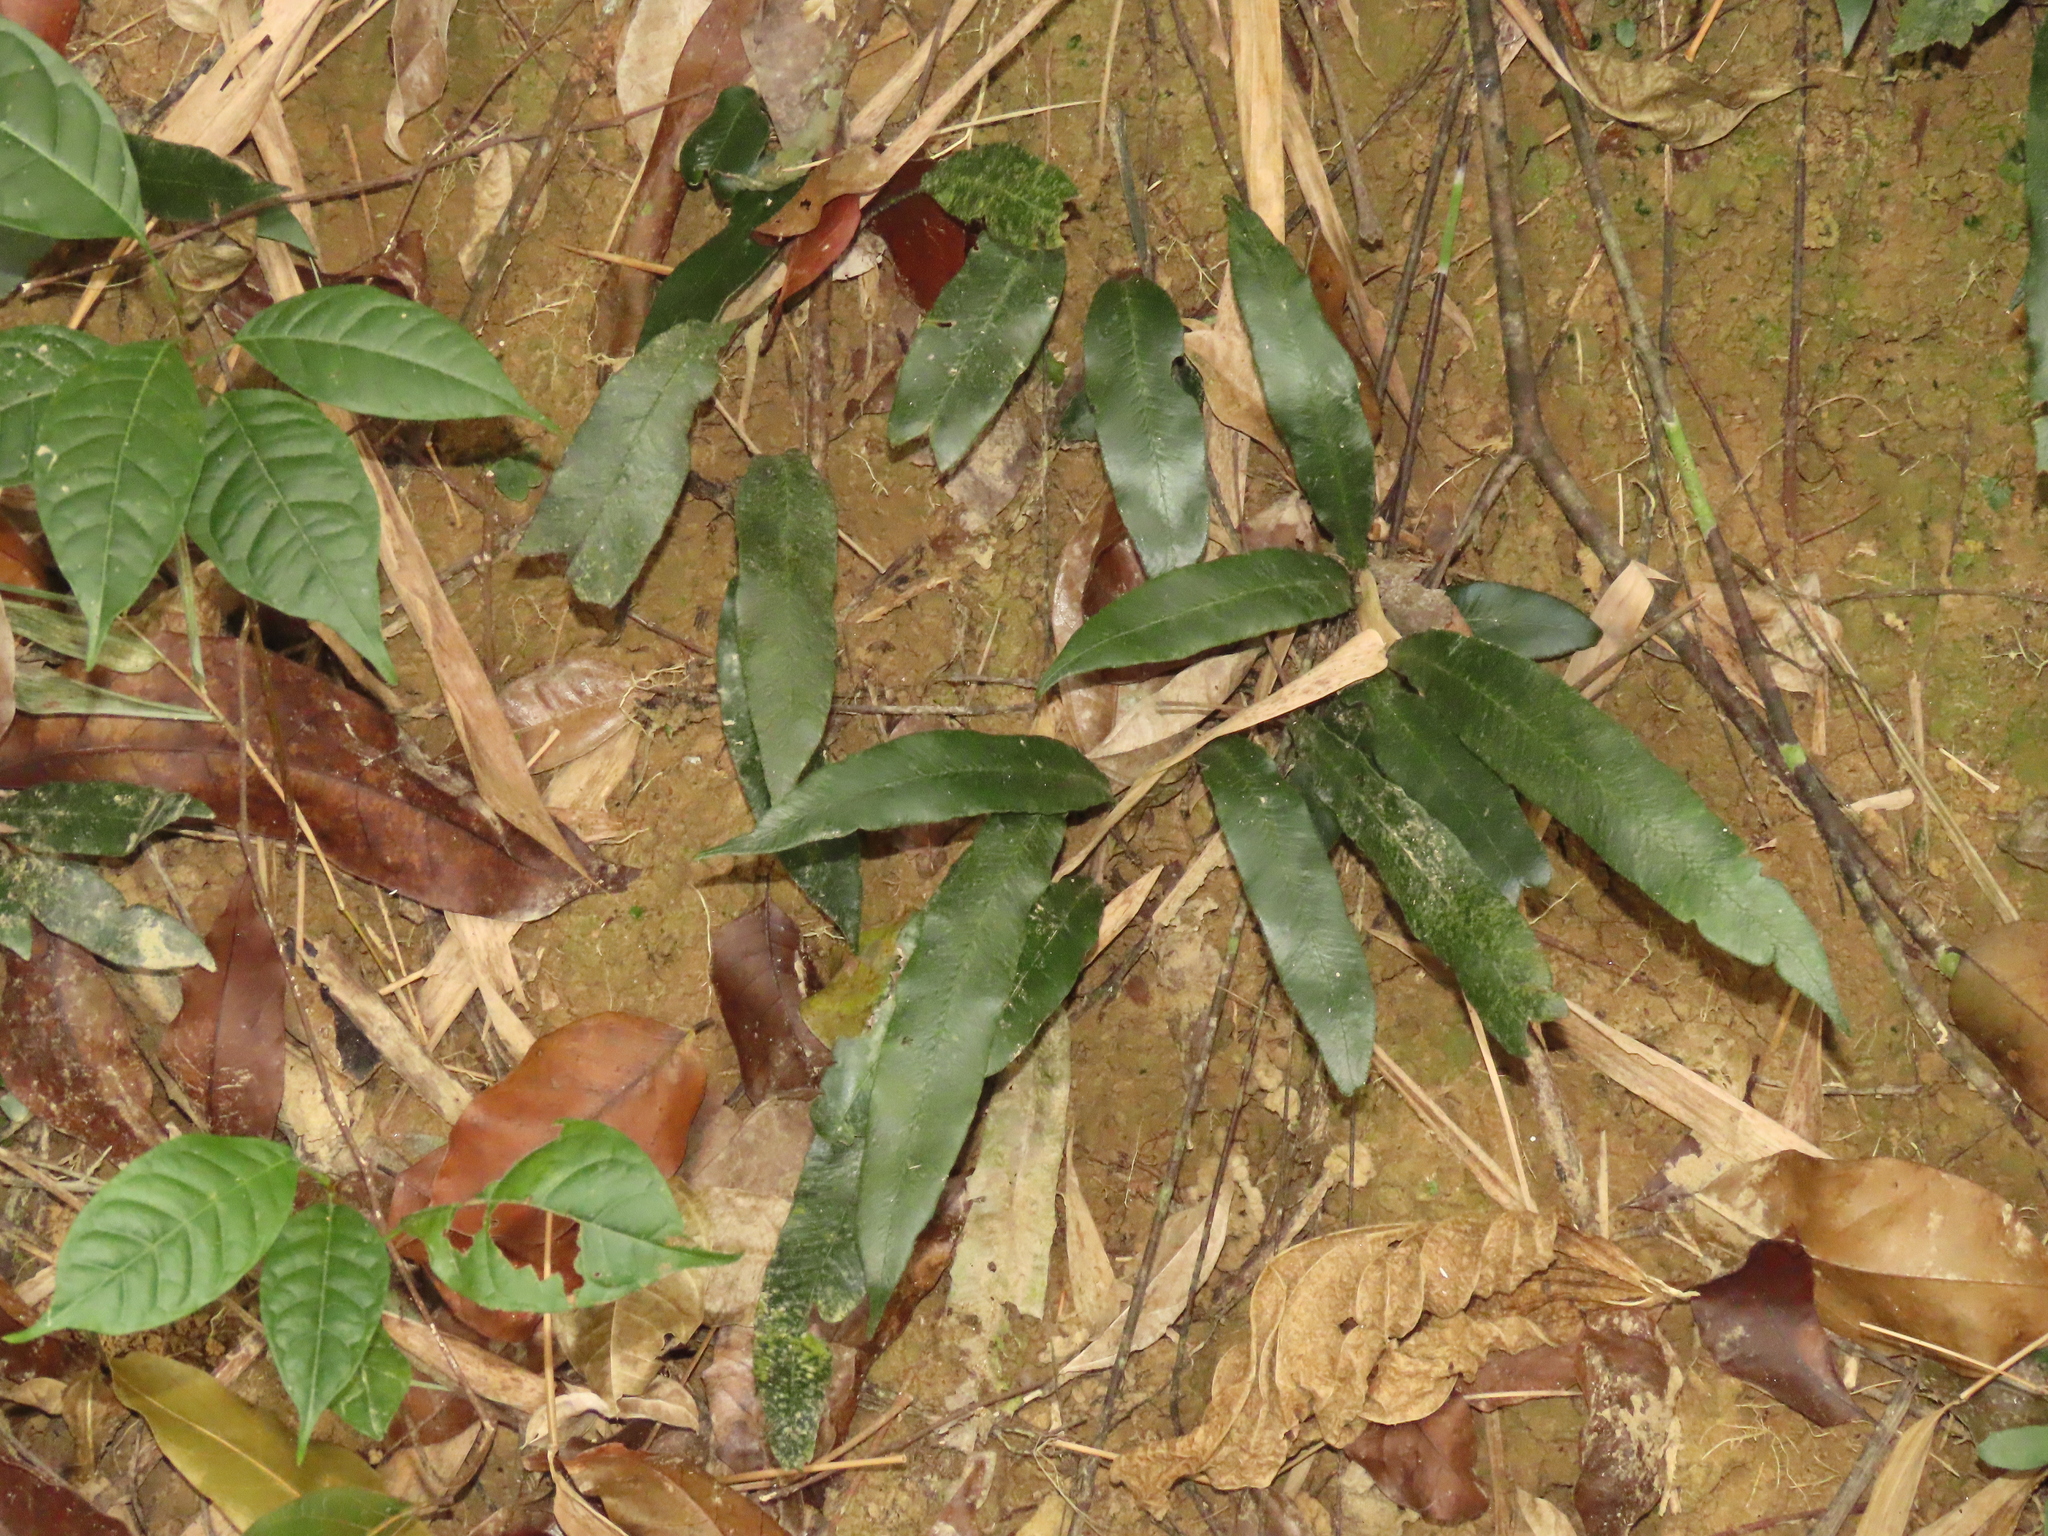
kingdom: Plantae
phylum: Tracheophyta
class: Polypodiopsida
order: Polypodiales
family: Athyriaceae
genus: Deparia
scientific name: Deparia lancea
